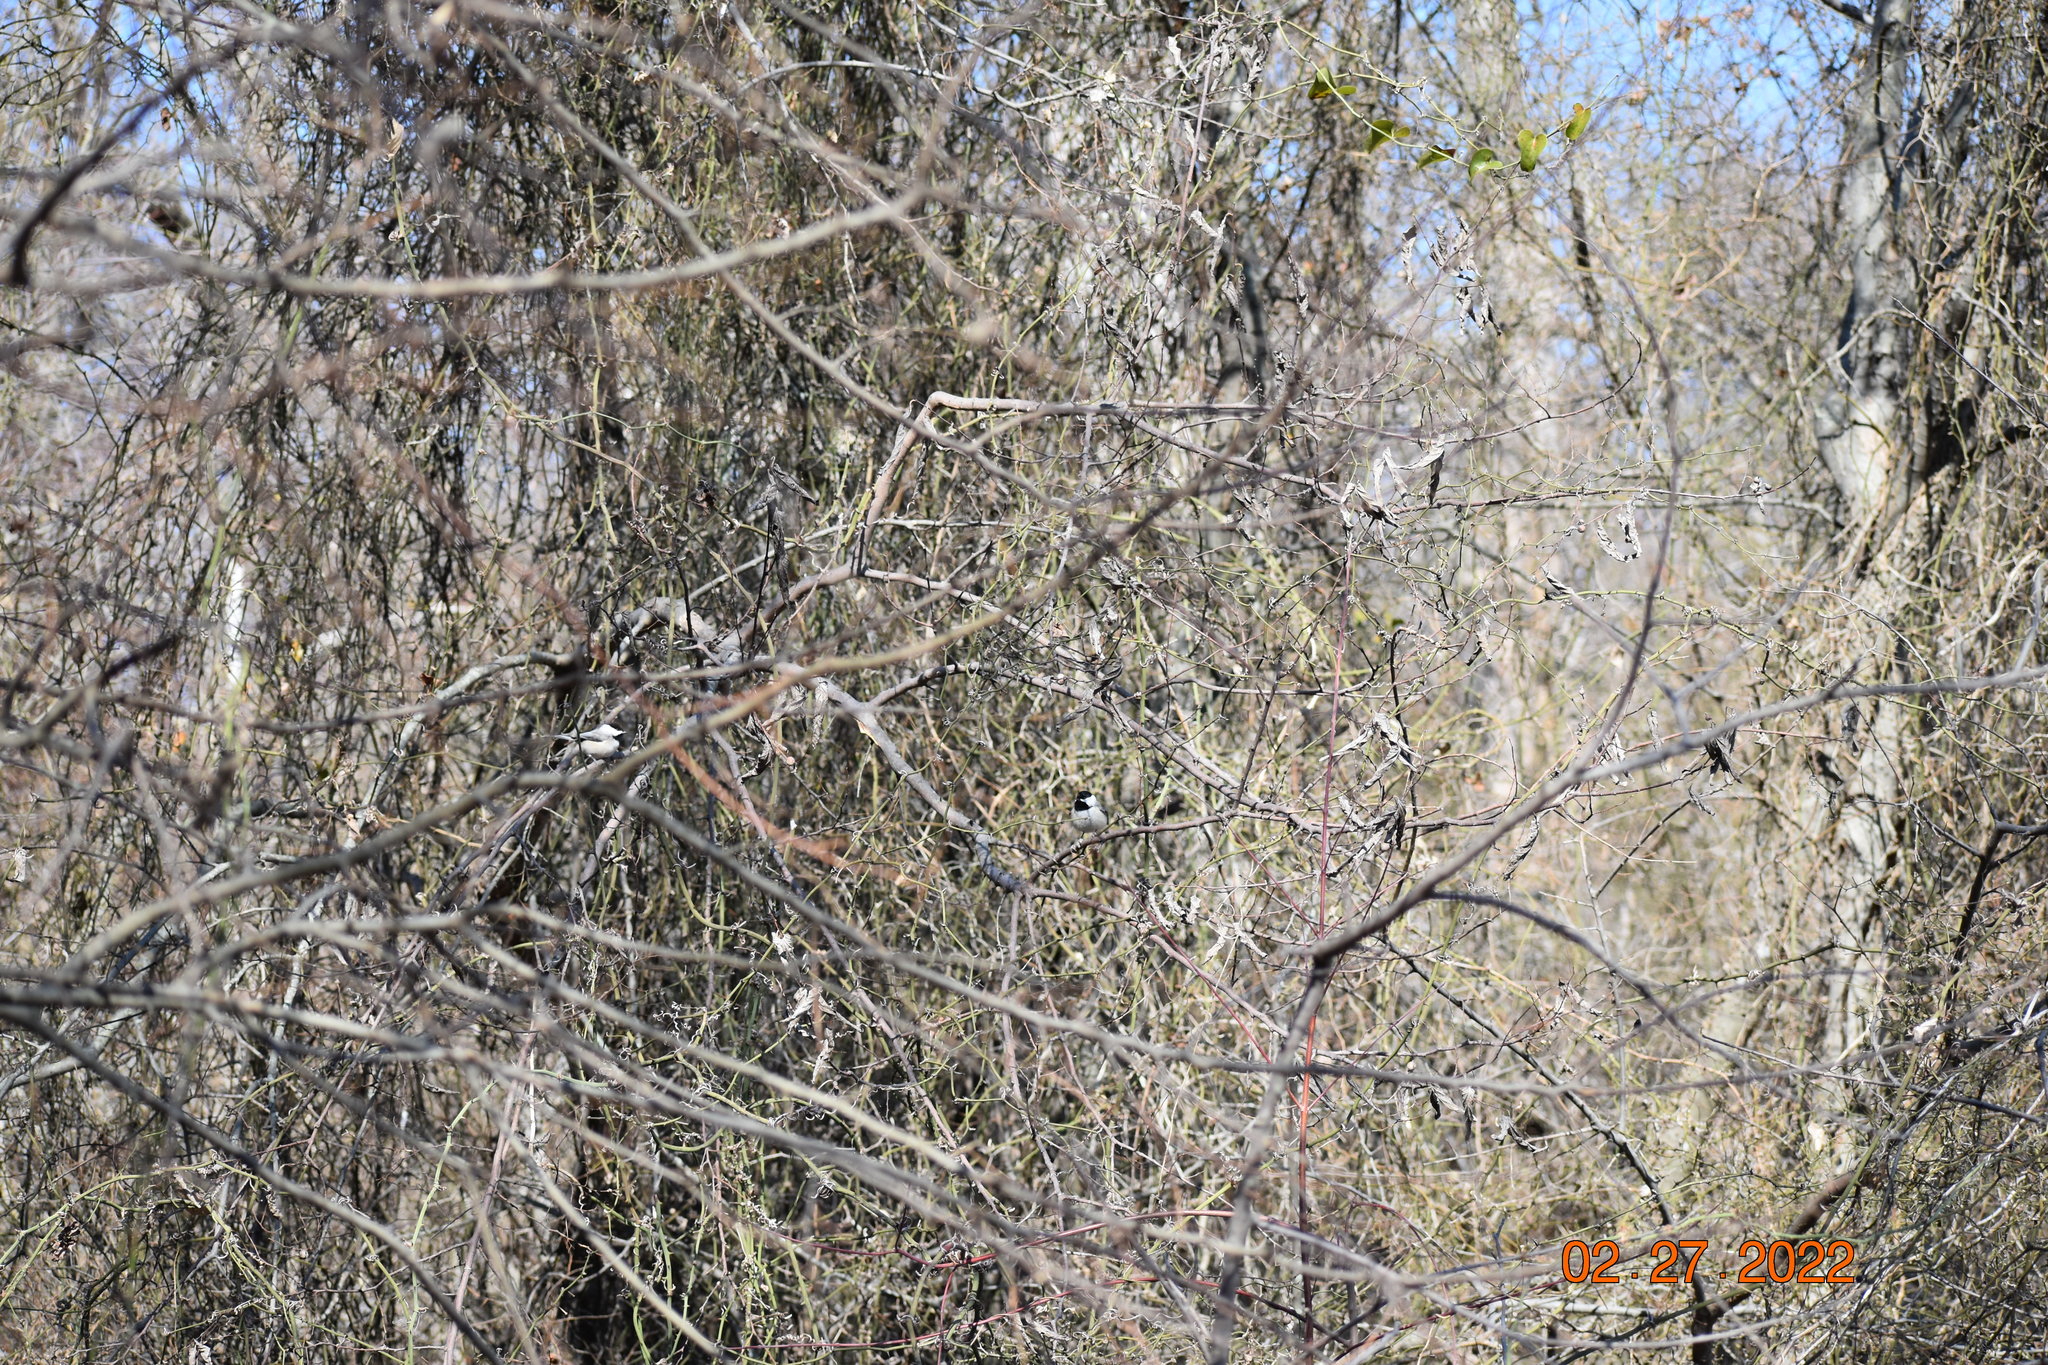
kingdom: Animalia
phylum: Chordata
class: Aves
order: Accipitriformes
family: Accipitridae
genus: Buteo
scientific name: Buteo jamaicensis
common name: Red-tailed hawk
